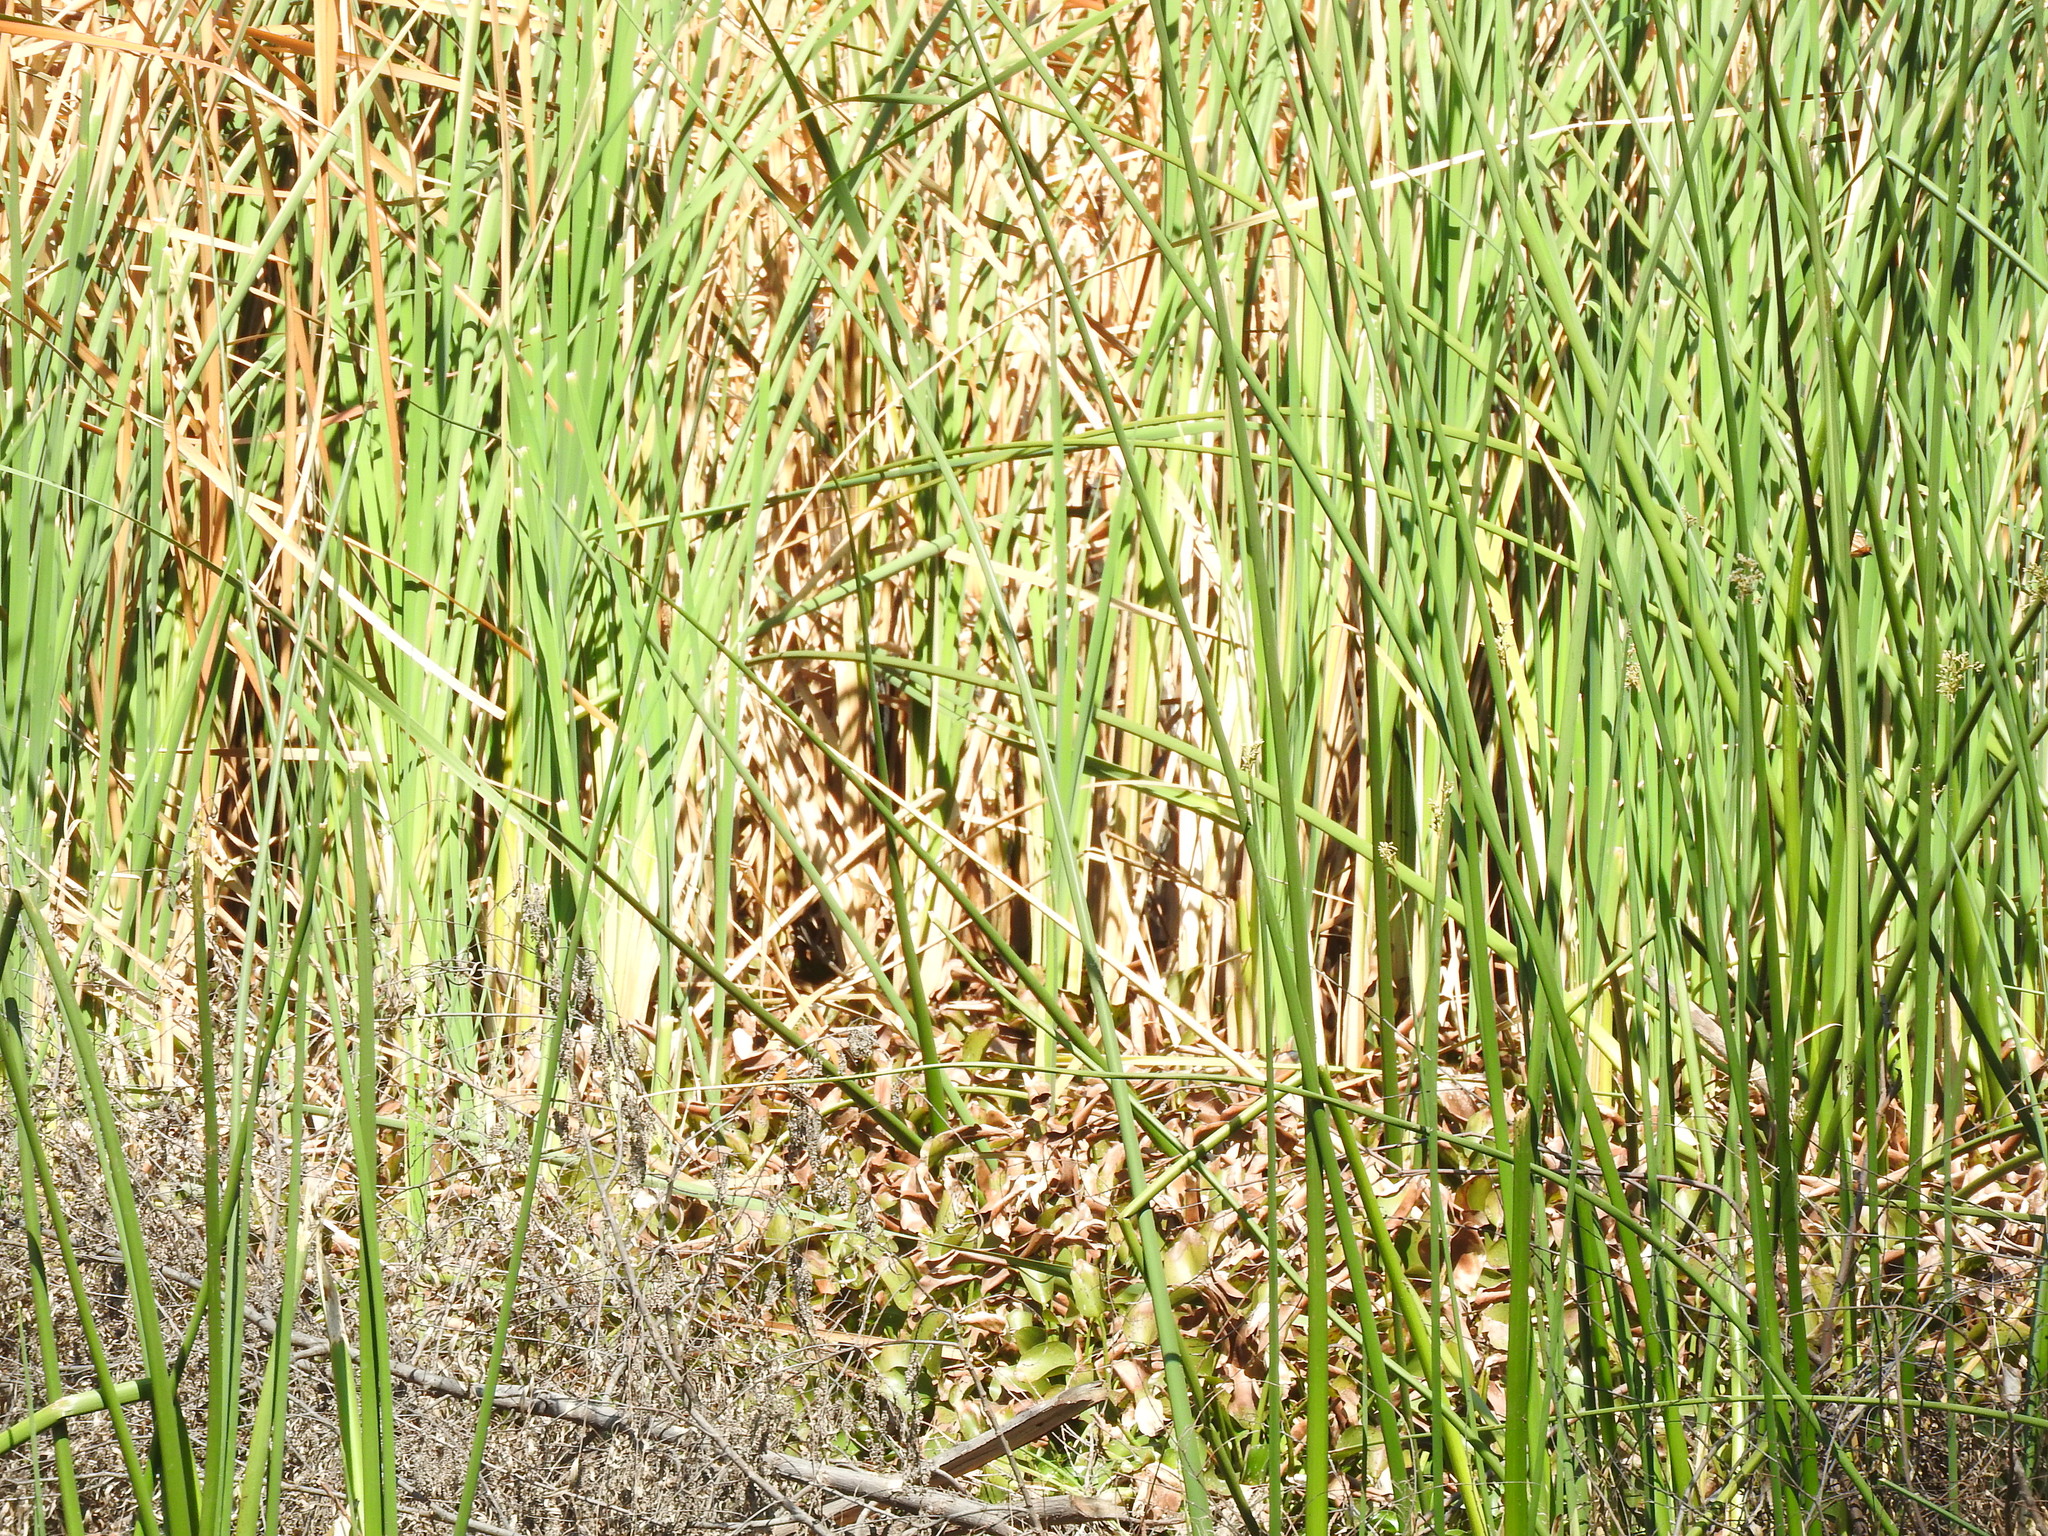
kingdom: Plantae
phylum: Tracheophyta
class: Liliopsida
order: Poales
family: Typhaceae
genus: Typha
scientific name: Typha domingensis
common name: Southern cattail
